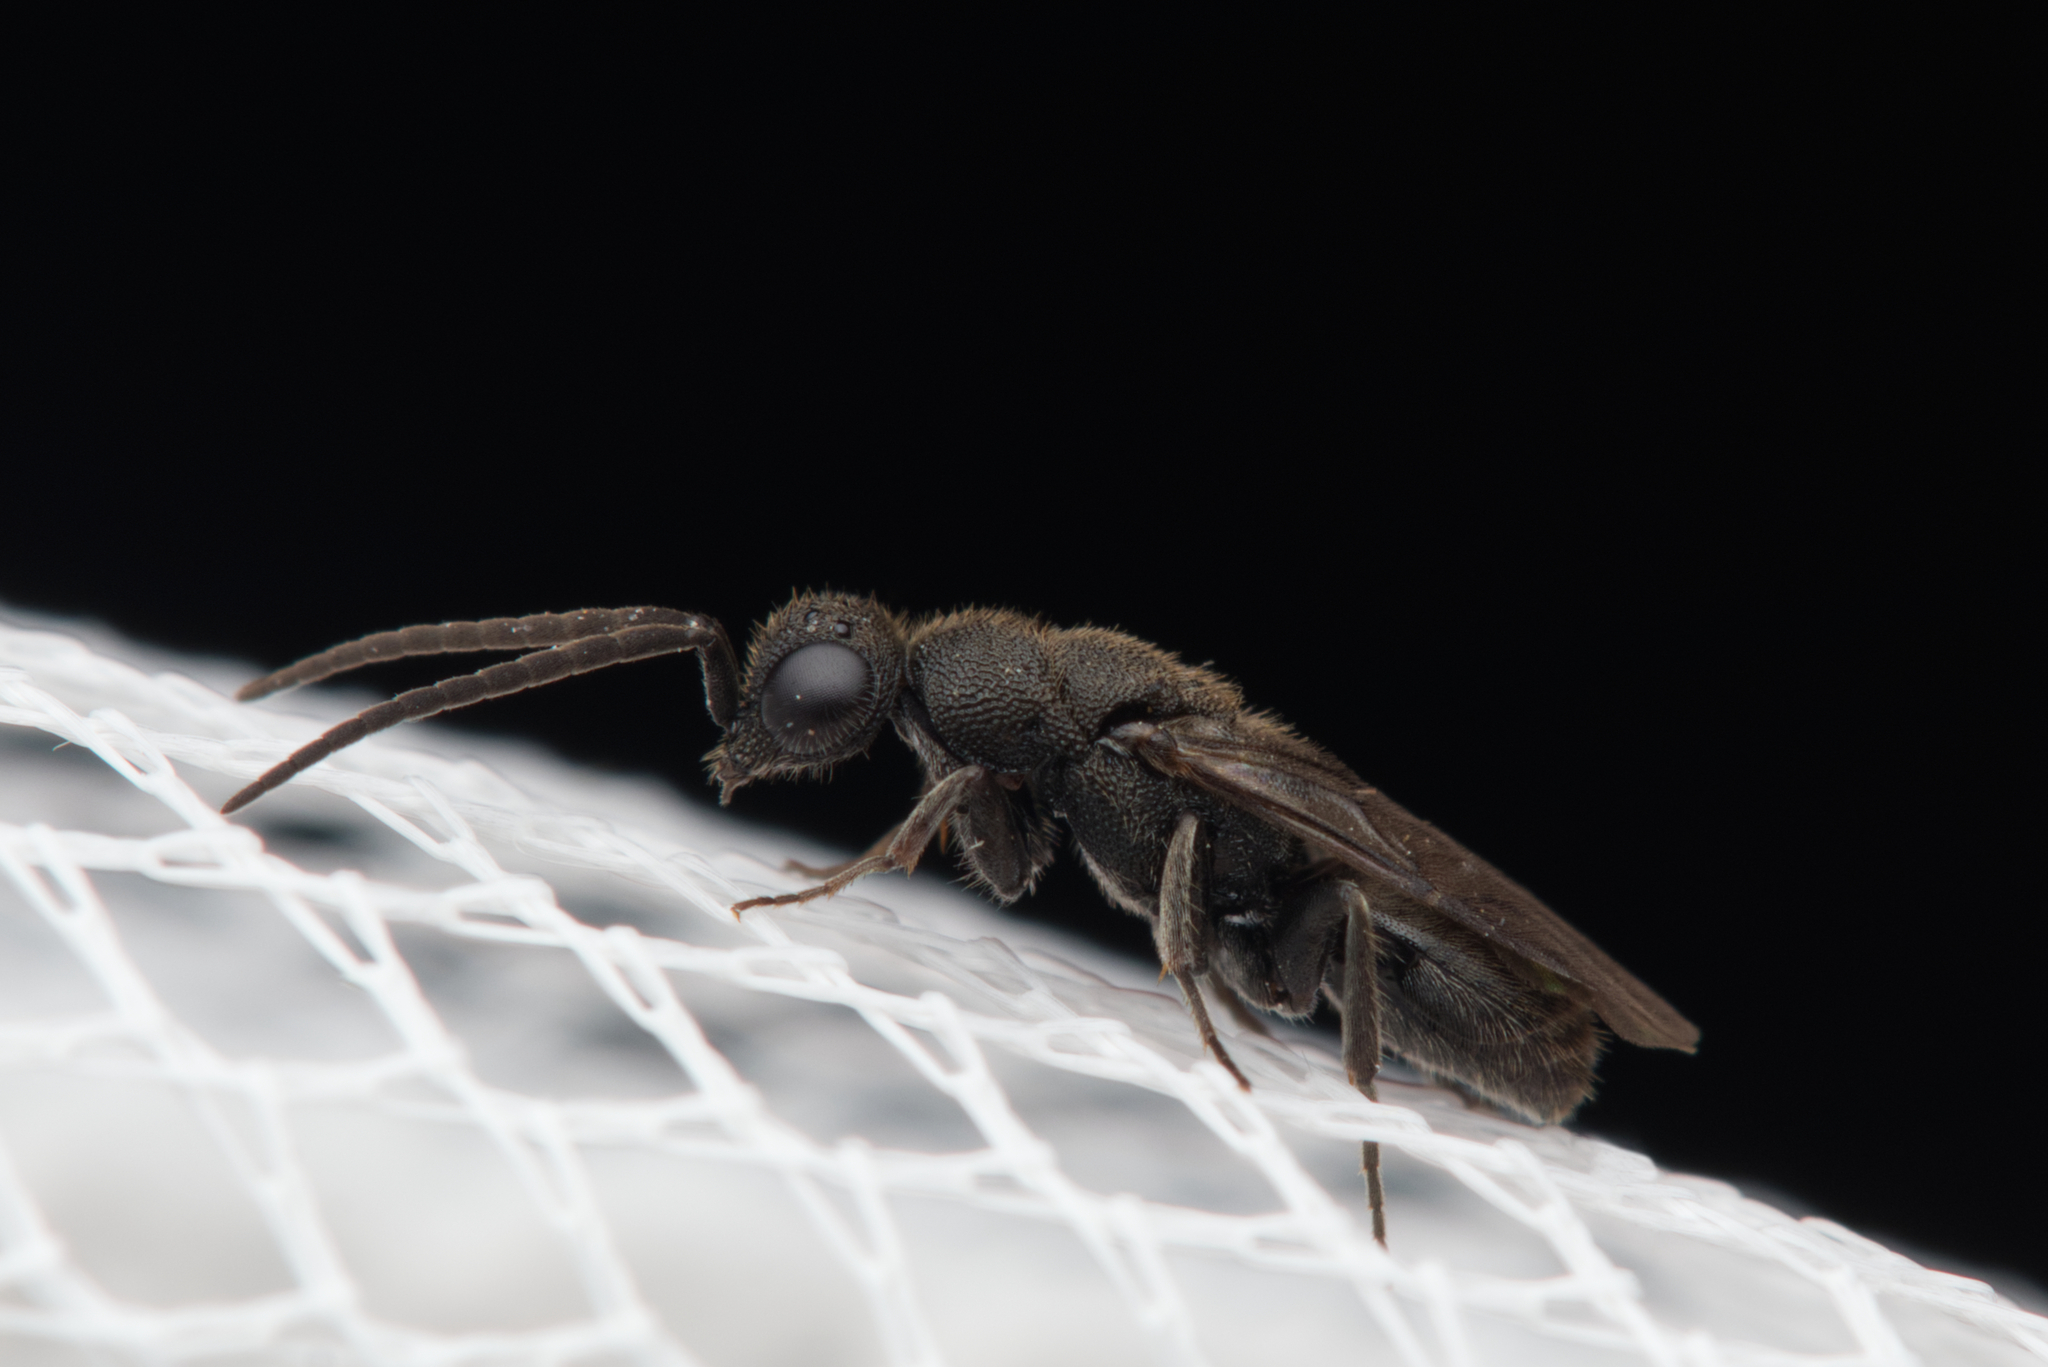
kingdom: Animalia
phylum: Arthropoda
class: Insecta
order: Hymenoptera
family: Chrysididae
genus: Myrmecomimesis
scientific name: Myrmecomimesis
